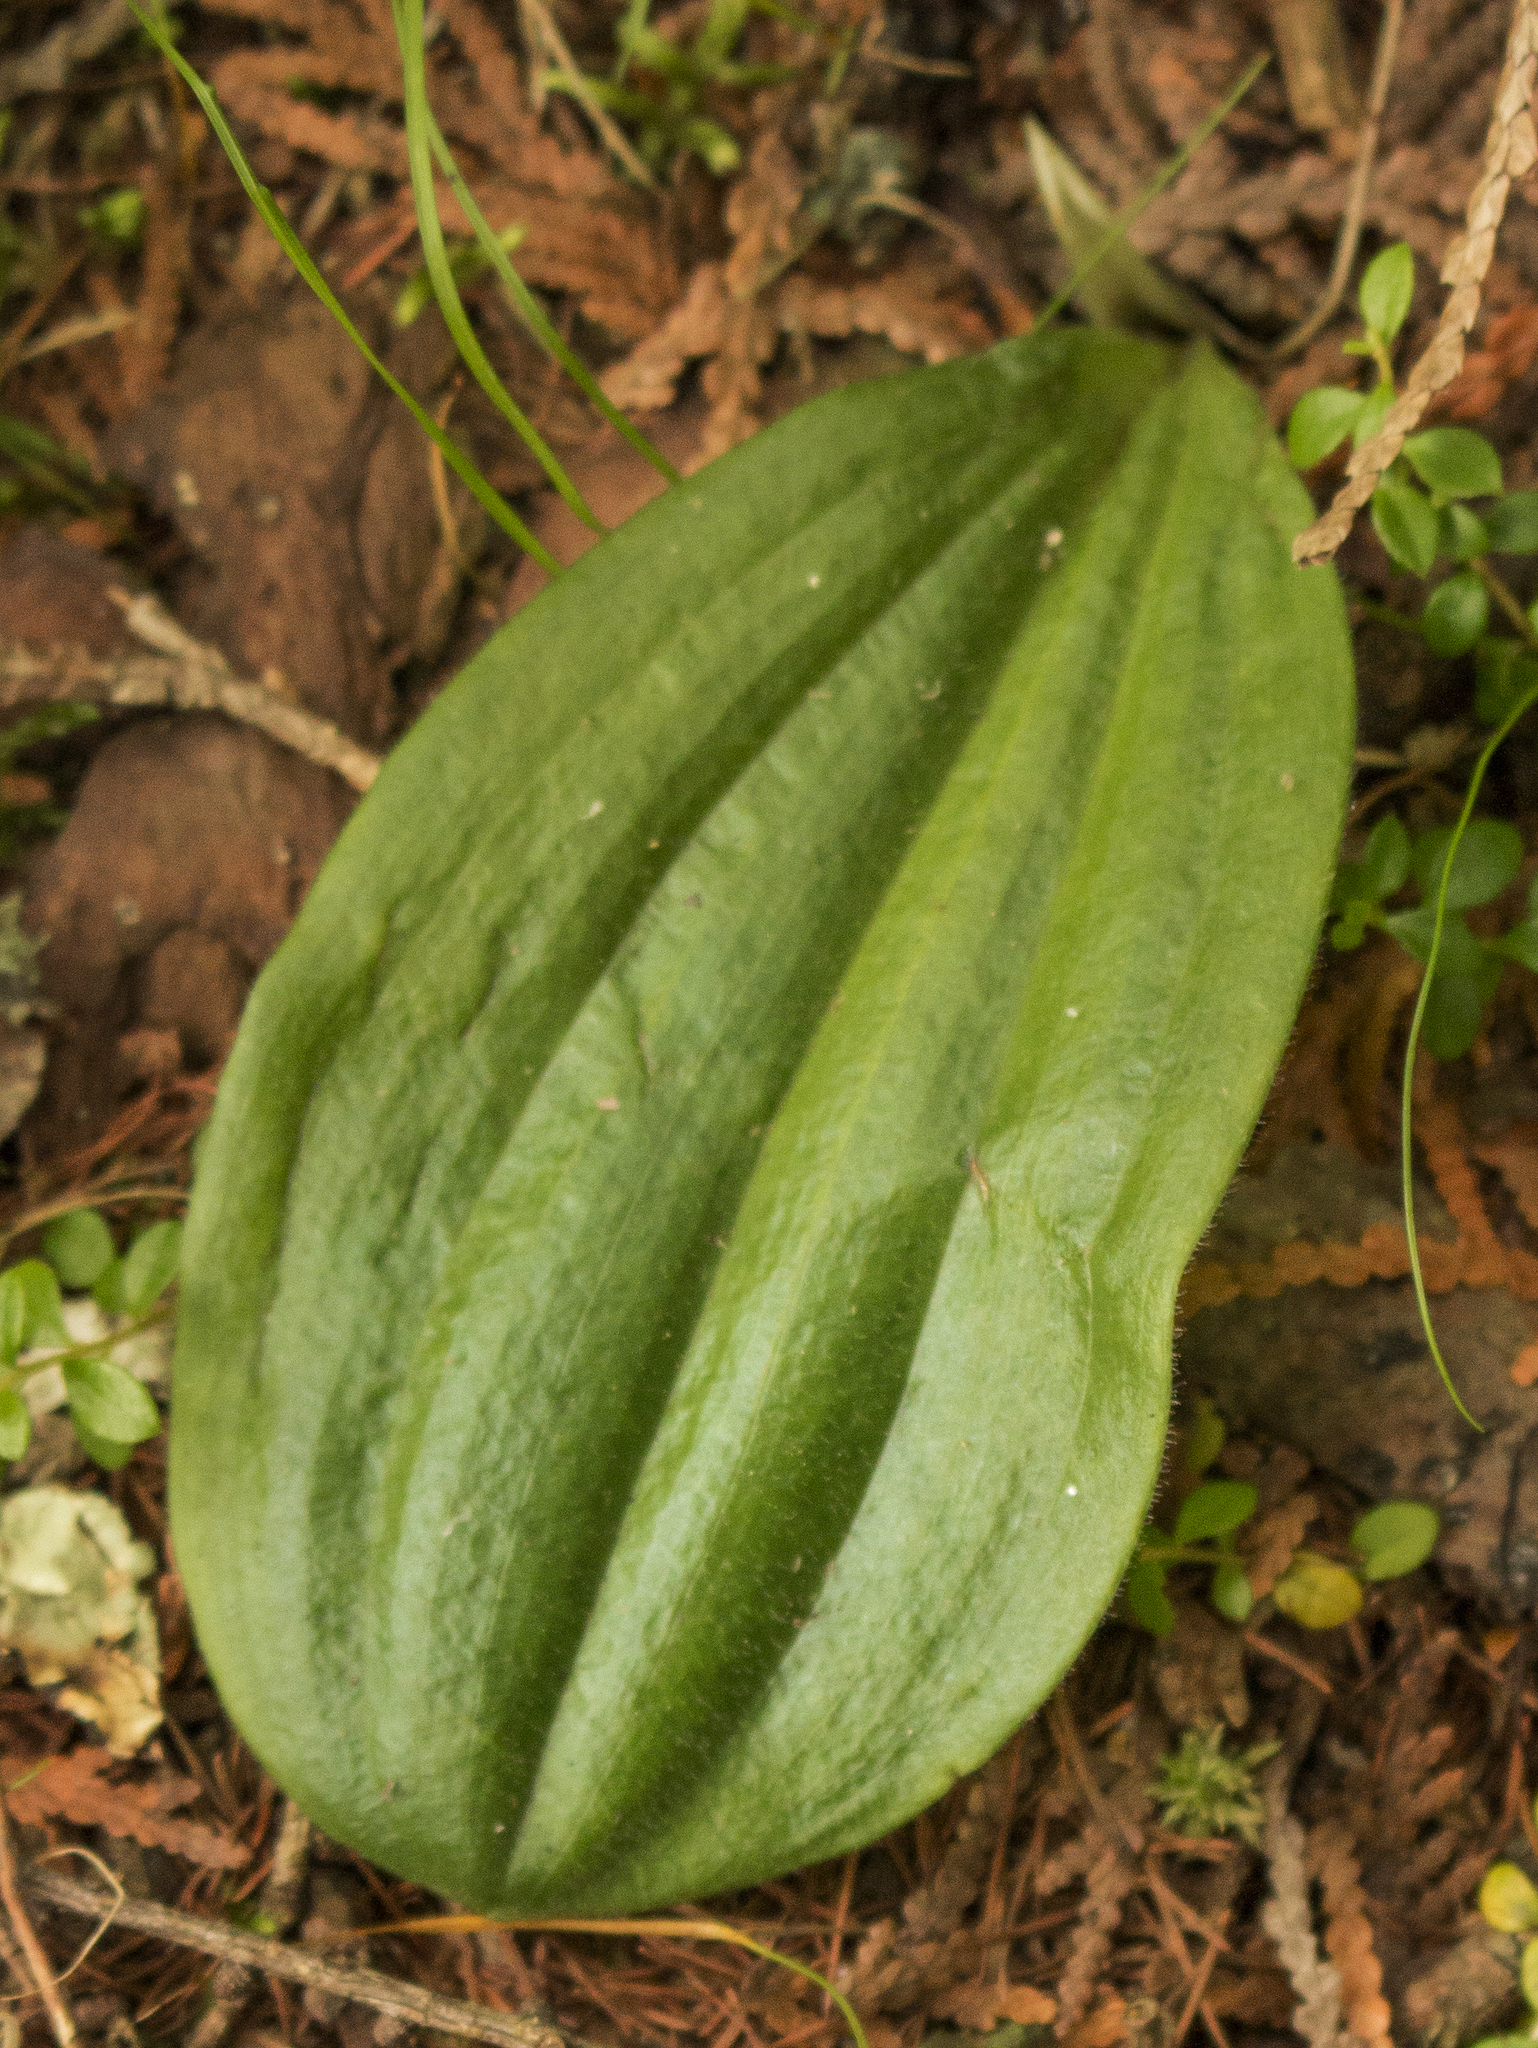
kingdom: Plantae
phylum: Tracheophyta
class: Liliopsida
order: Asparagales
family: Orchidaceae
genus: Cypripedium
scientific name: Cypripedium acaule
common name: Pink lady's-slipper
